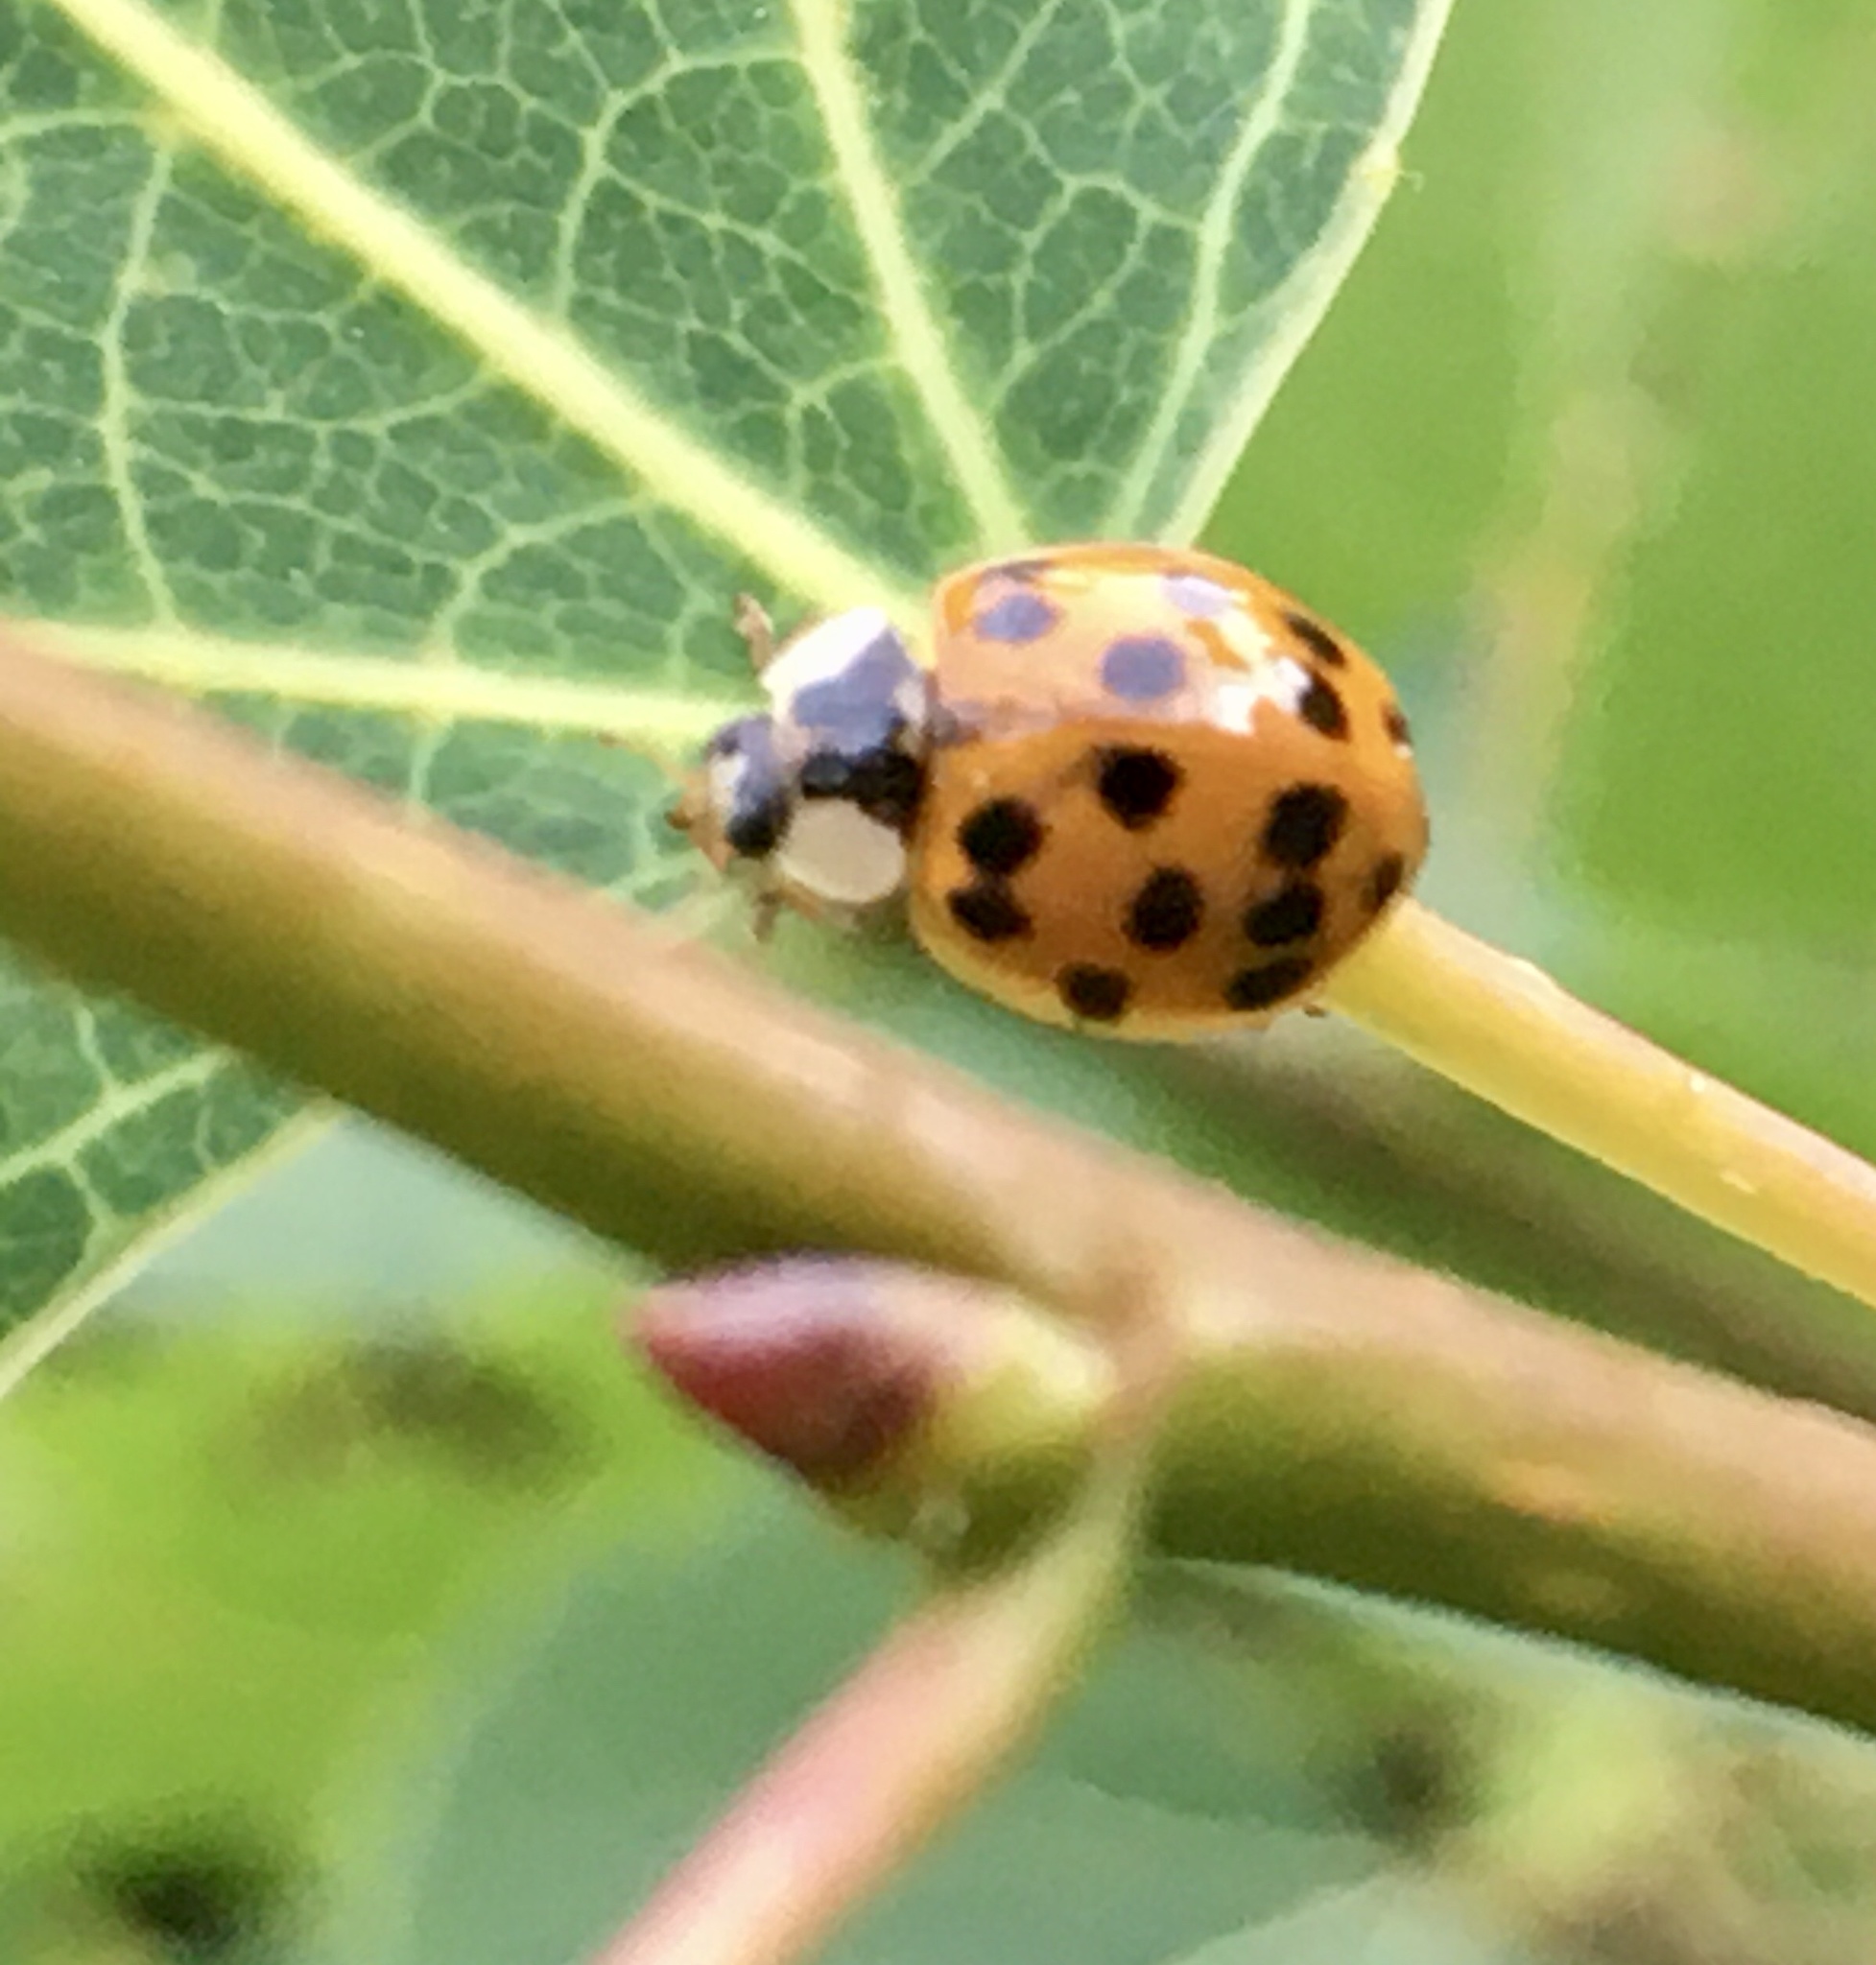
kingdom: Animalia
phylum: Arthropoda
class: Insecta
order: Coleoptera
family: Coccinellidae
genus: Harmonia
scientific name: Harmonia axyridis
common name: Harlequin ladybird
